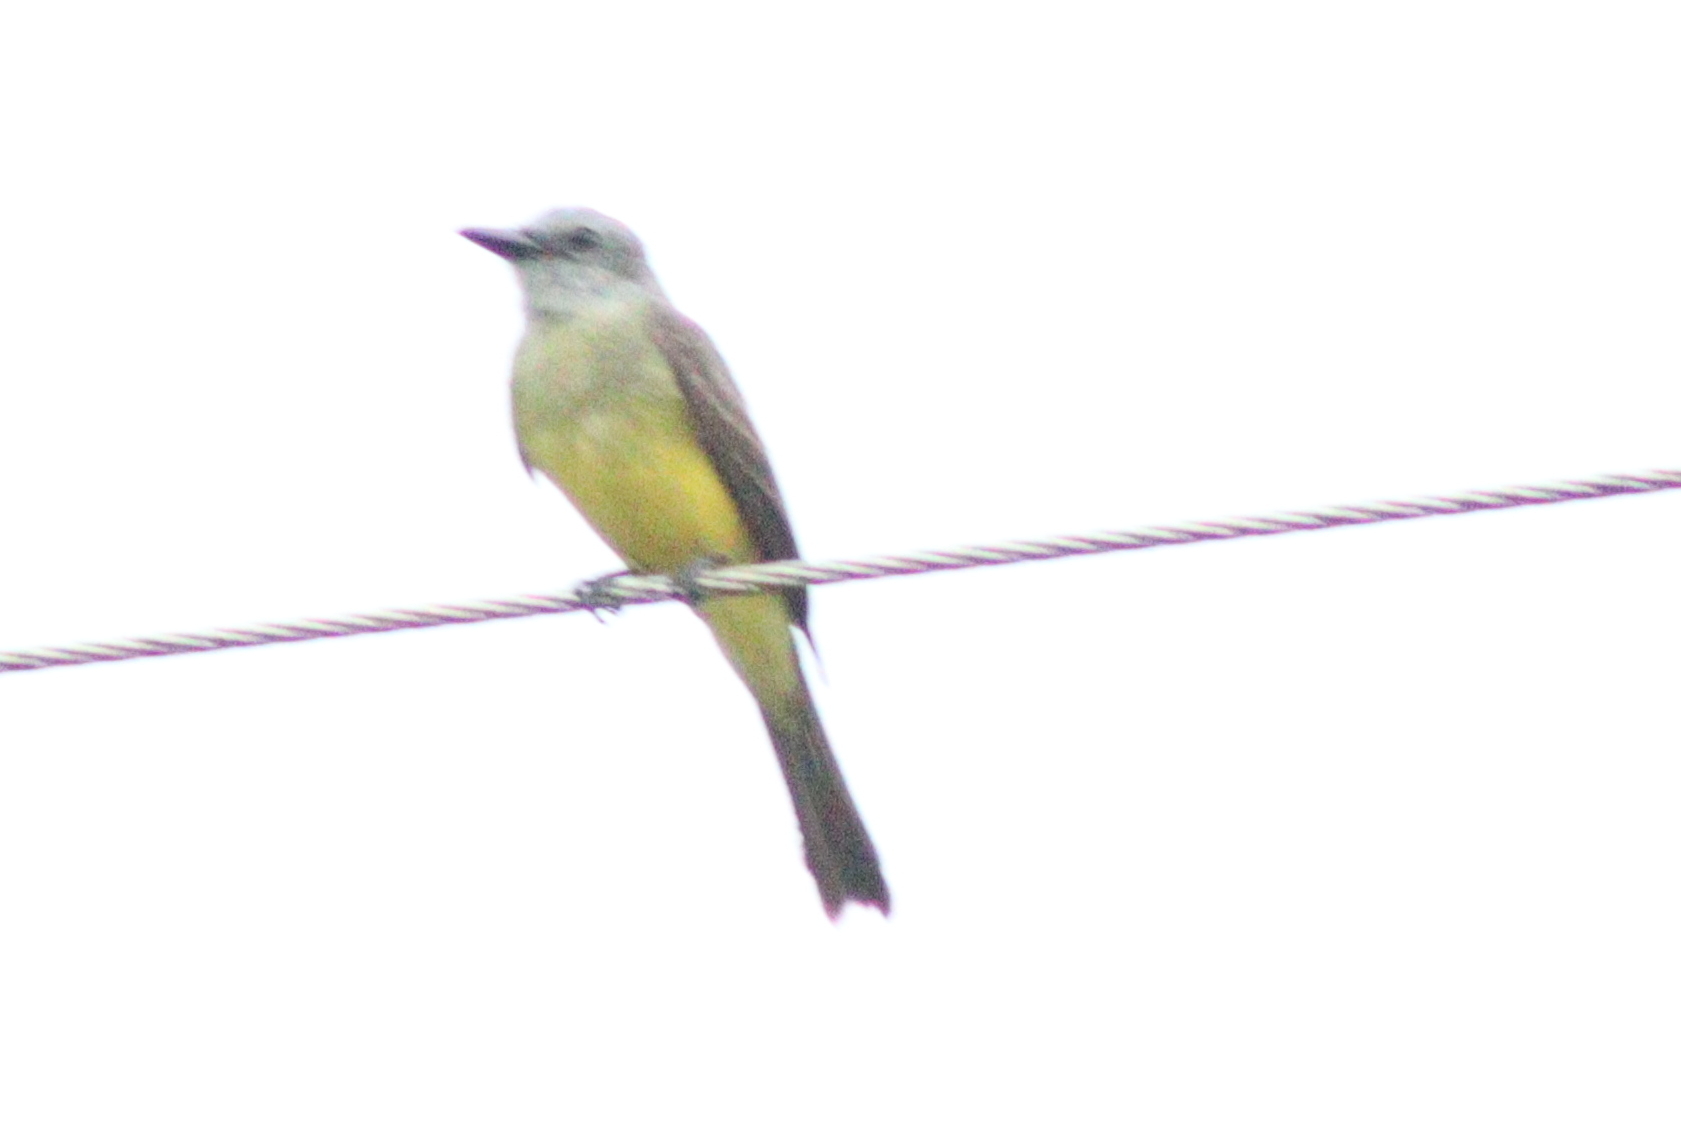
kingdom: Animalia
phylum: Chordata
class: Aves
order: Passeriformes
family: Tyrannidae
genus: Tyrannus
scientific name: Tyrannus melancholicus
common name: Tropical kingbird
